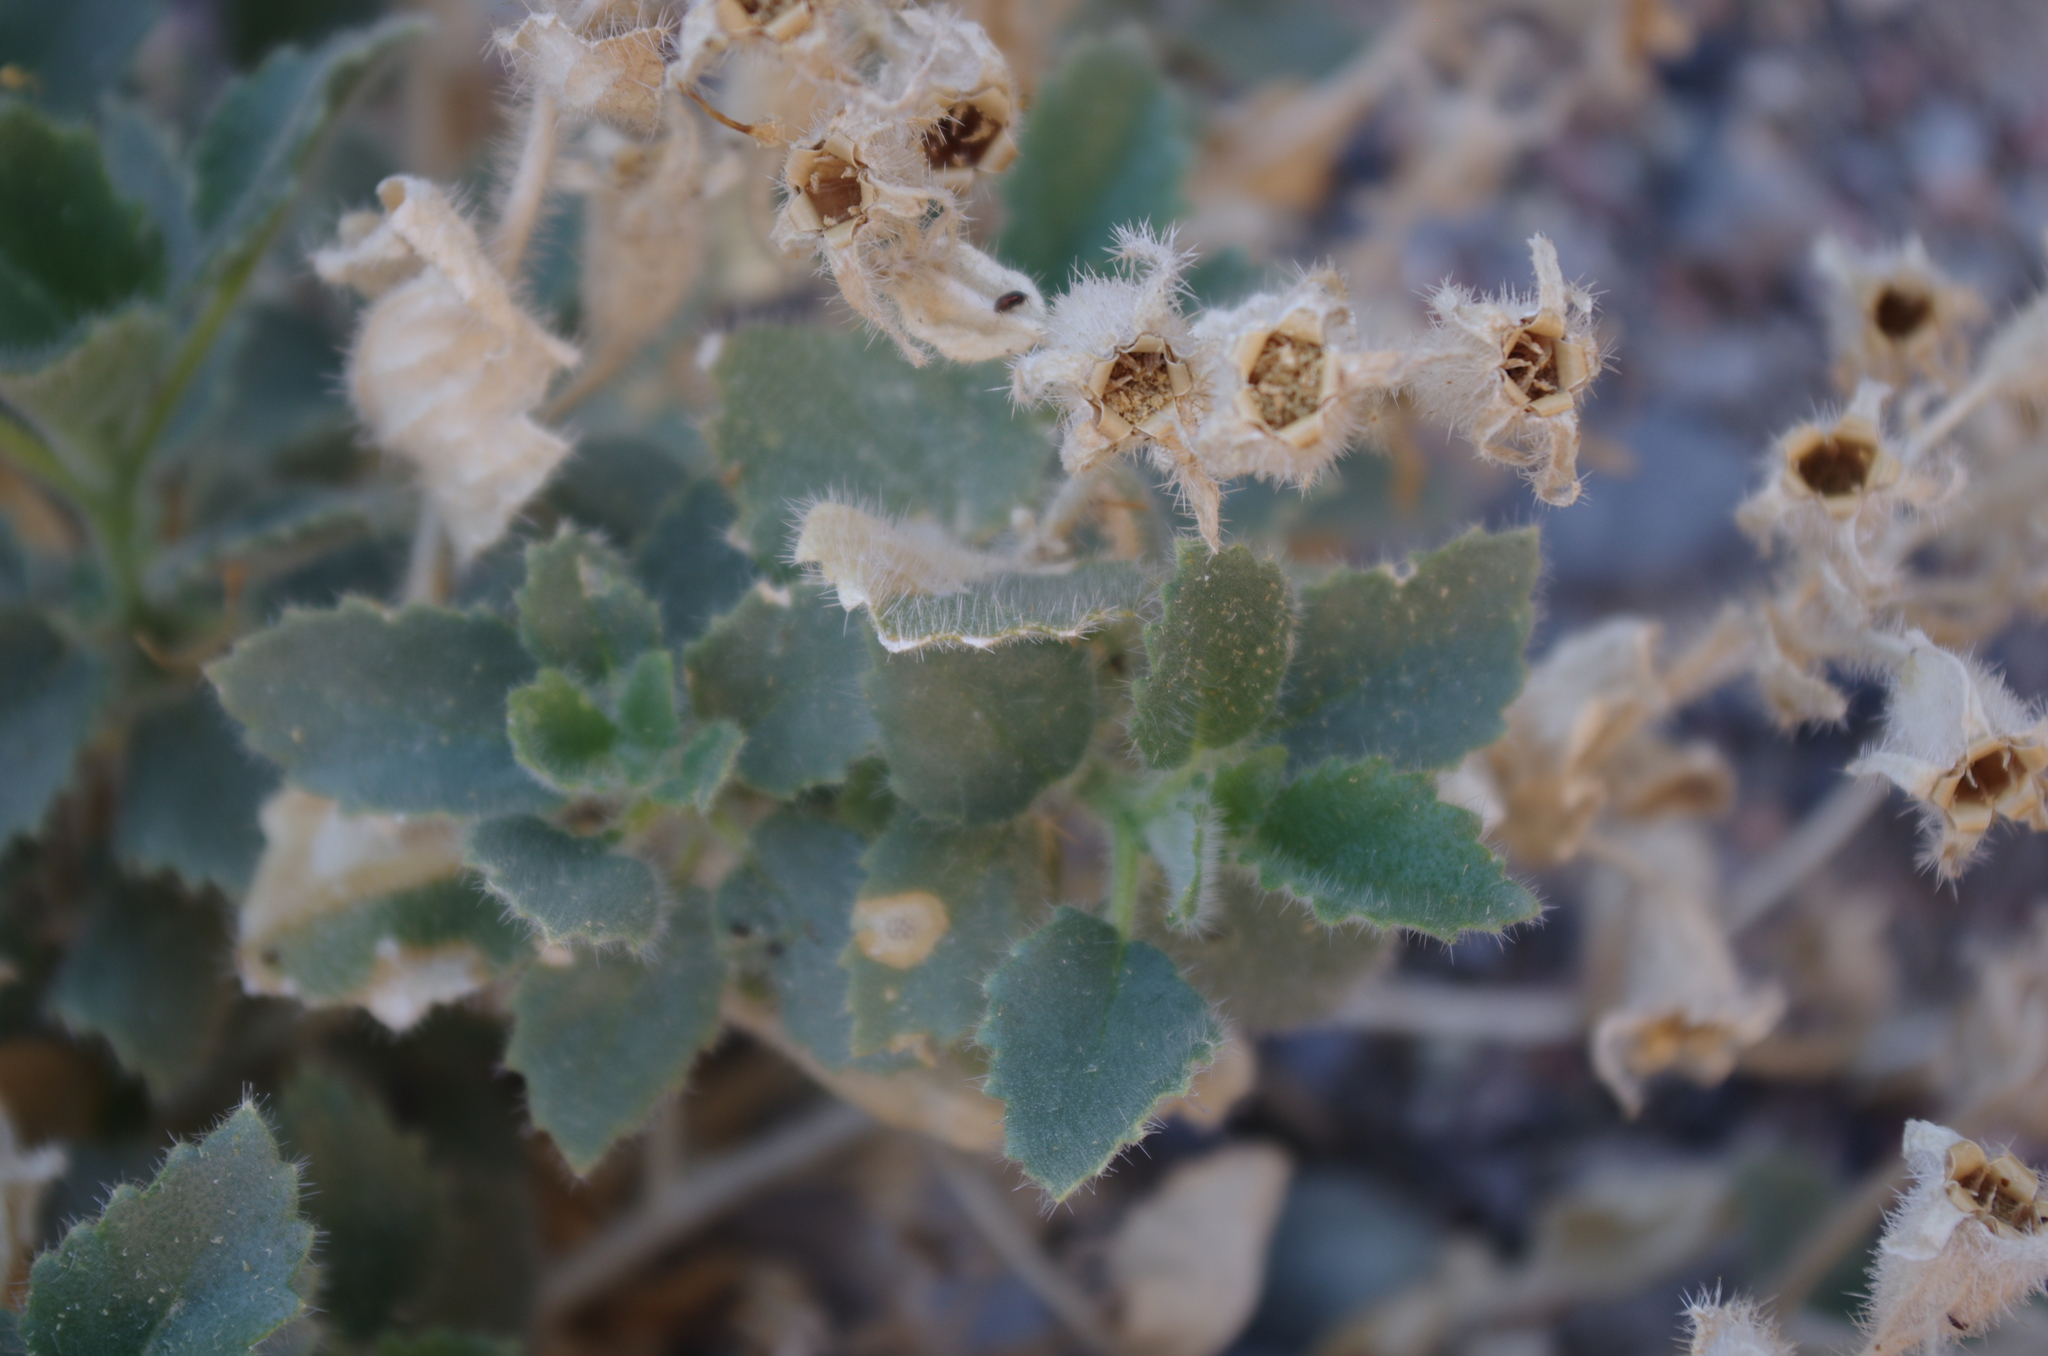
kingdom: Plantae
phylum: Tracheophyta
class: Magnoliopsida
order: Cornales
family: Loasaceae
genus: Eucnide
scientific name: Eucnide urens
